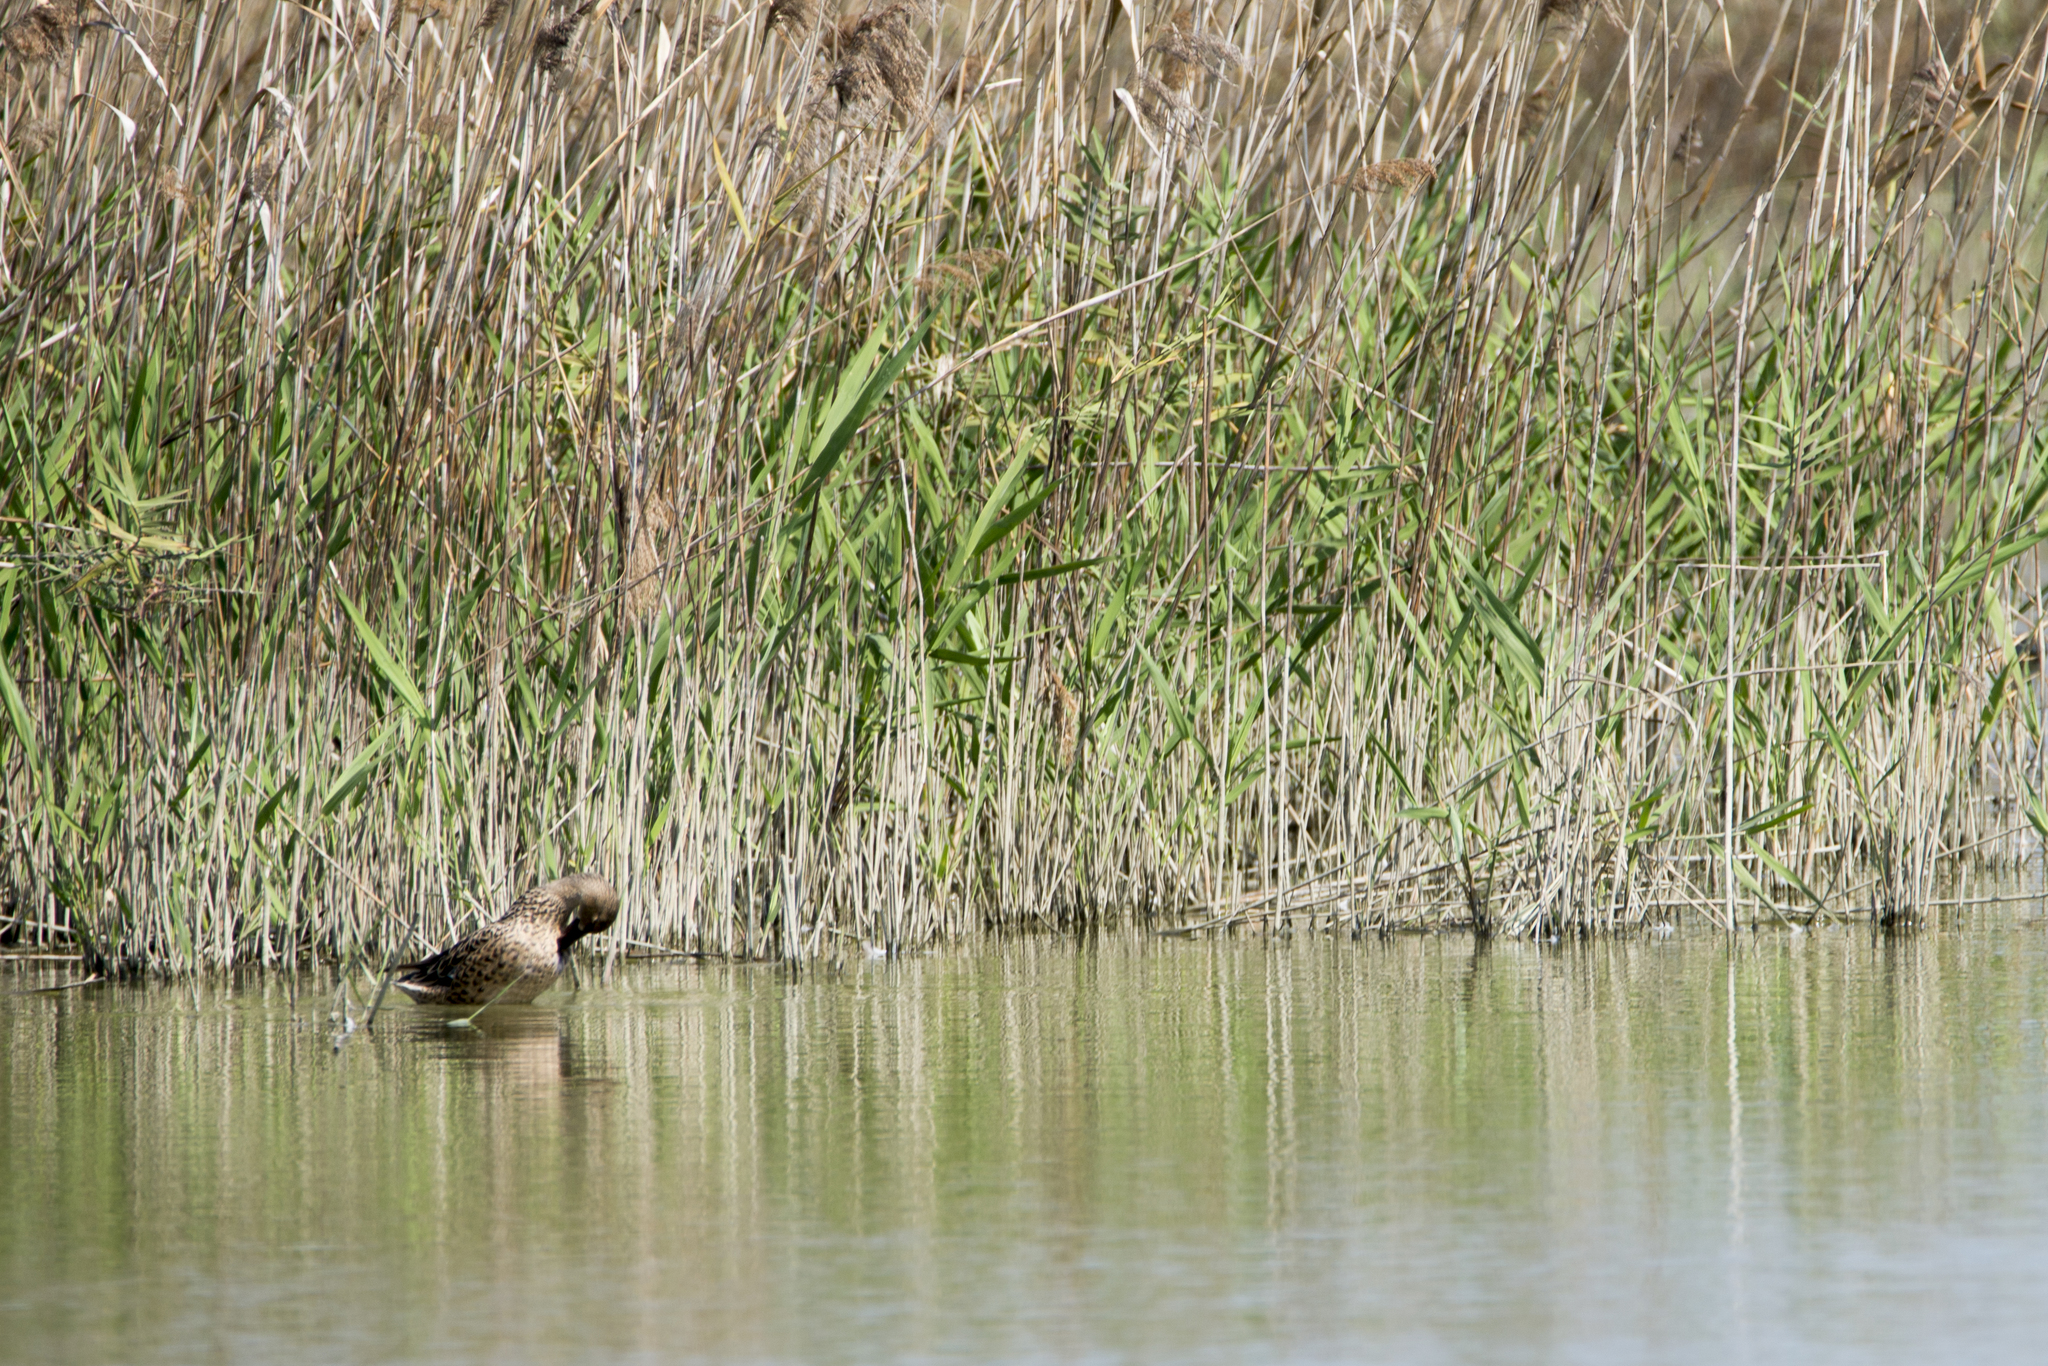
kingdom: Animalia
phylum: Chordata
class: Aves
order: Anseriformes
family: Anatidae
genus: Spatula
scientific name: Spatula clypeata
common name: Northern shoveler
